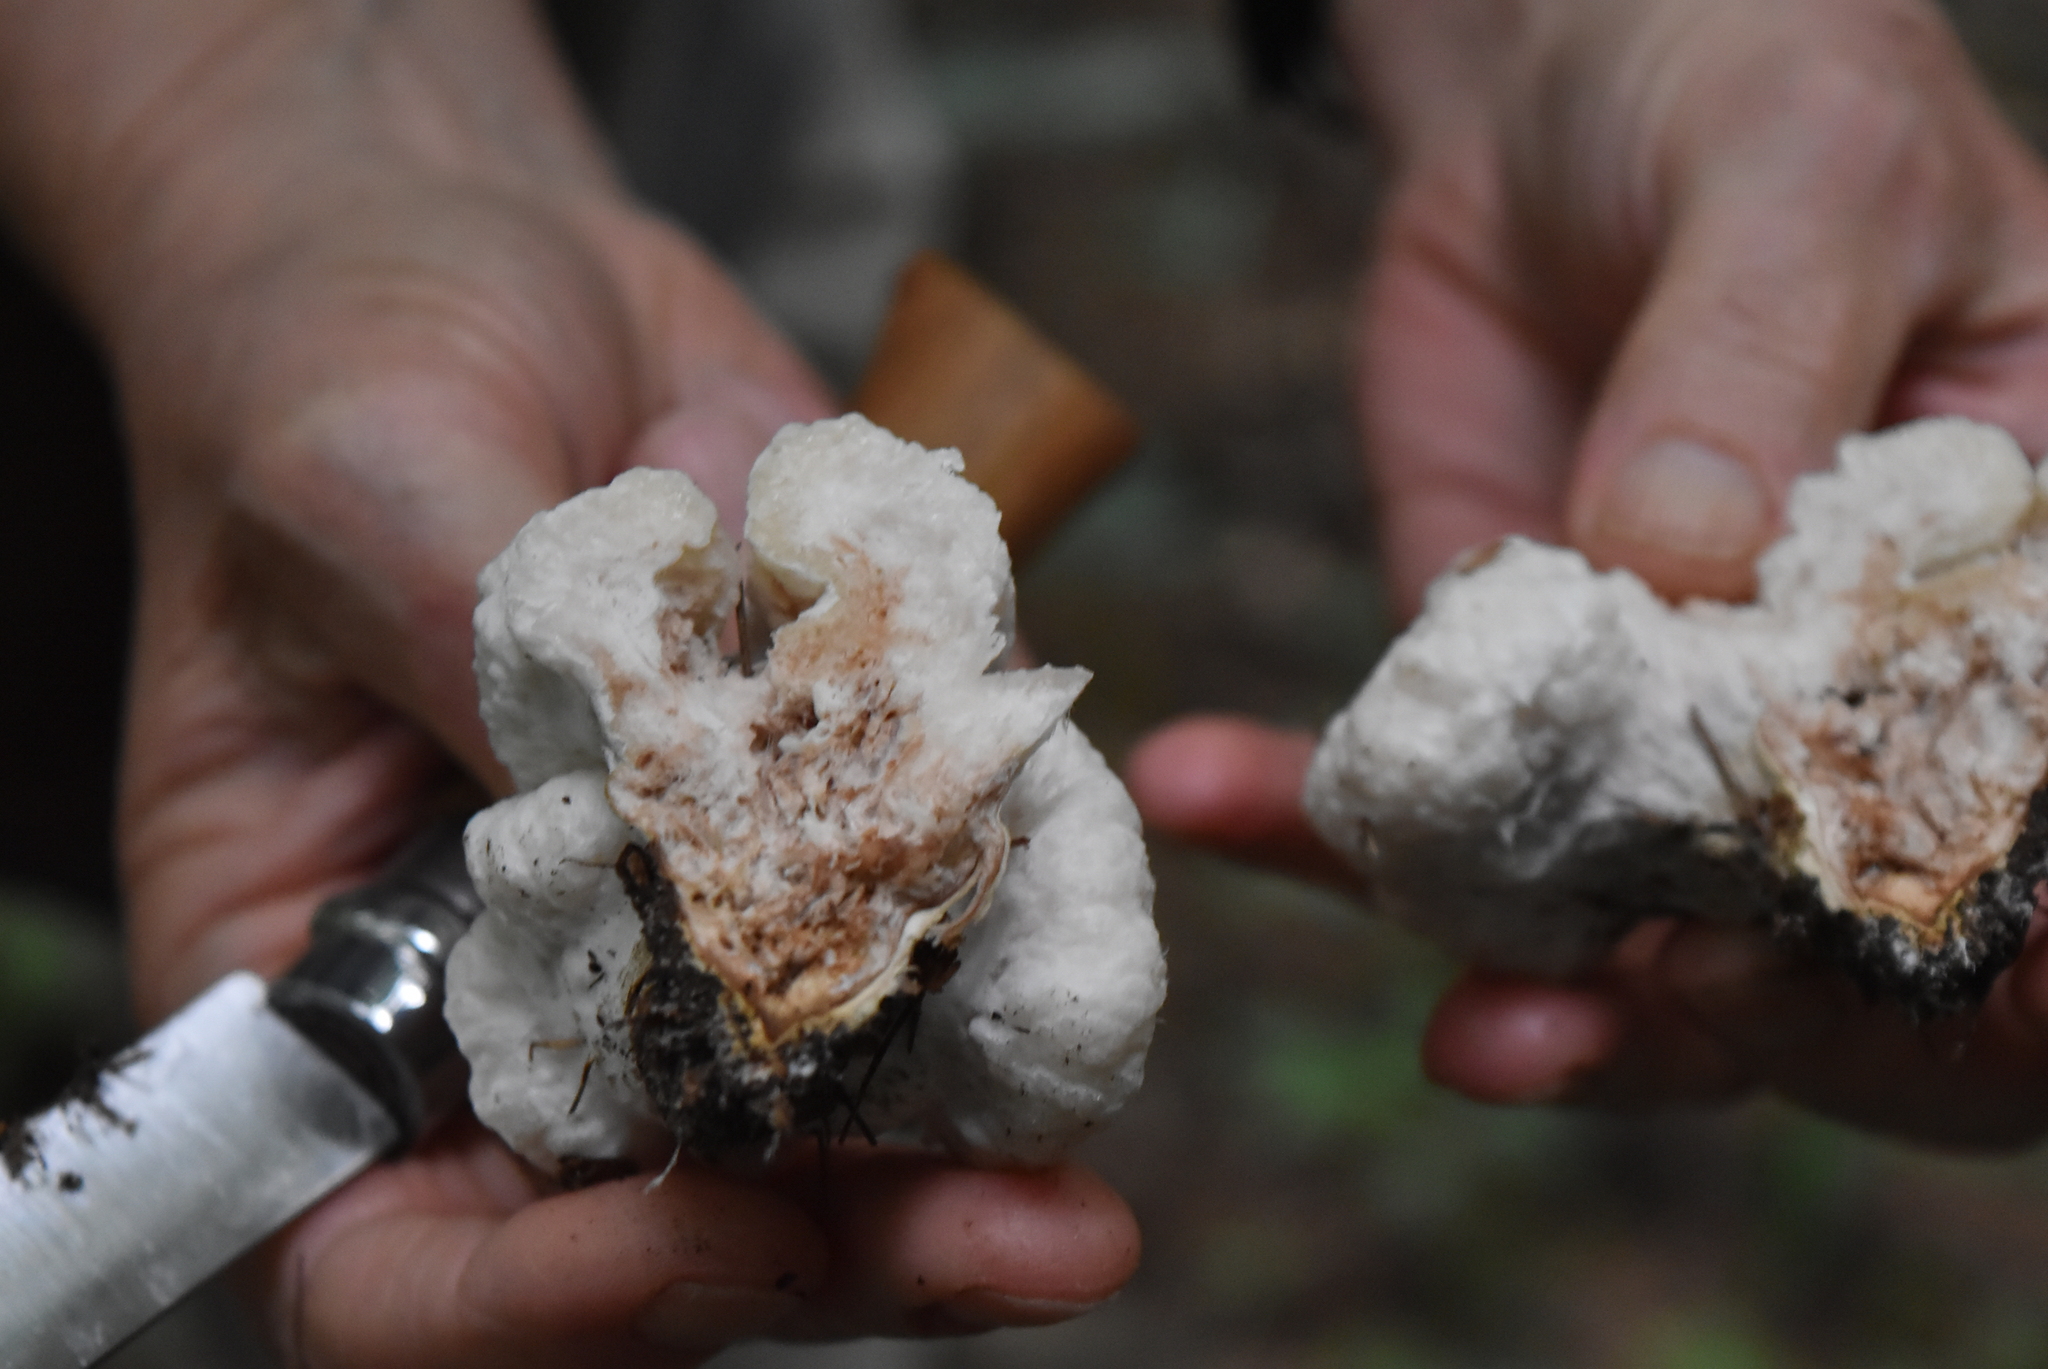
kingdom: Fungi
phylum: Basidiomycota
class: Agaricomycetes
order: Agaricales
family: Entolomataceae
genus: Entoloma
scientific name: Entoloma abortivum
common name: Aborted entoloma
